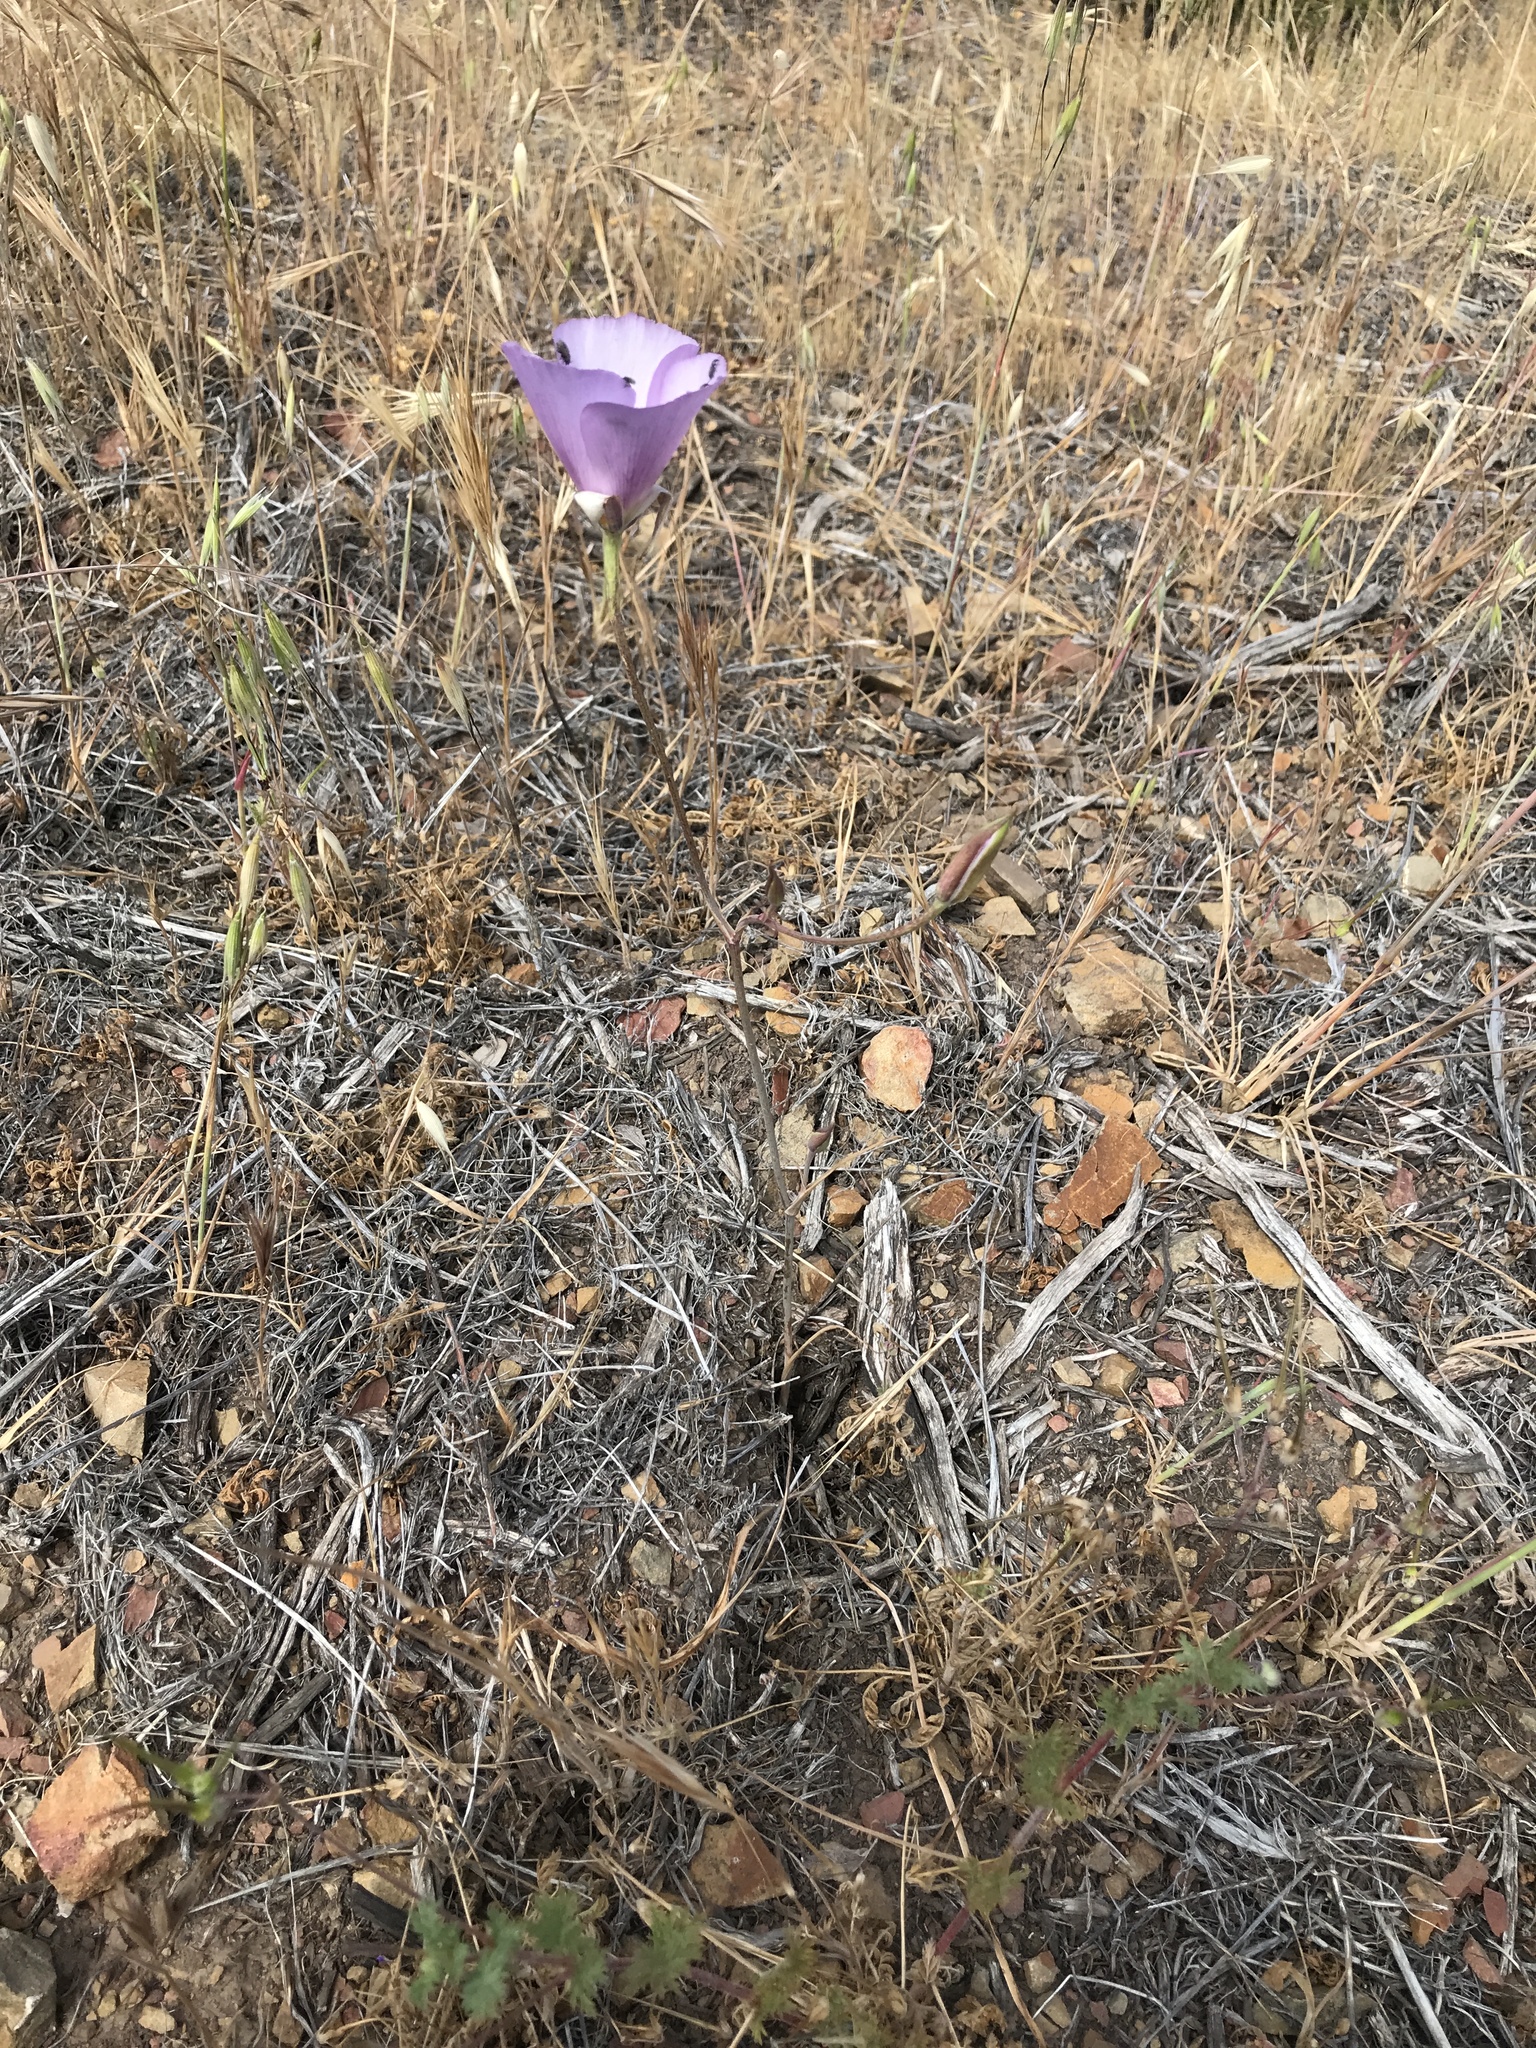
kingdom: Plantae
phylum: Tracheophyta
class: Liliopsida
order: Liliales
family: Liliaceae
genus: Calochortus
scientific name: Calochortus splendens
